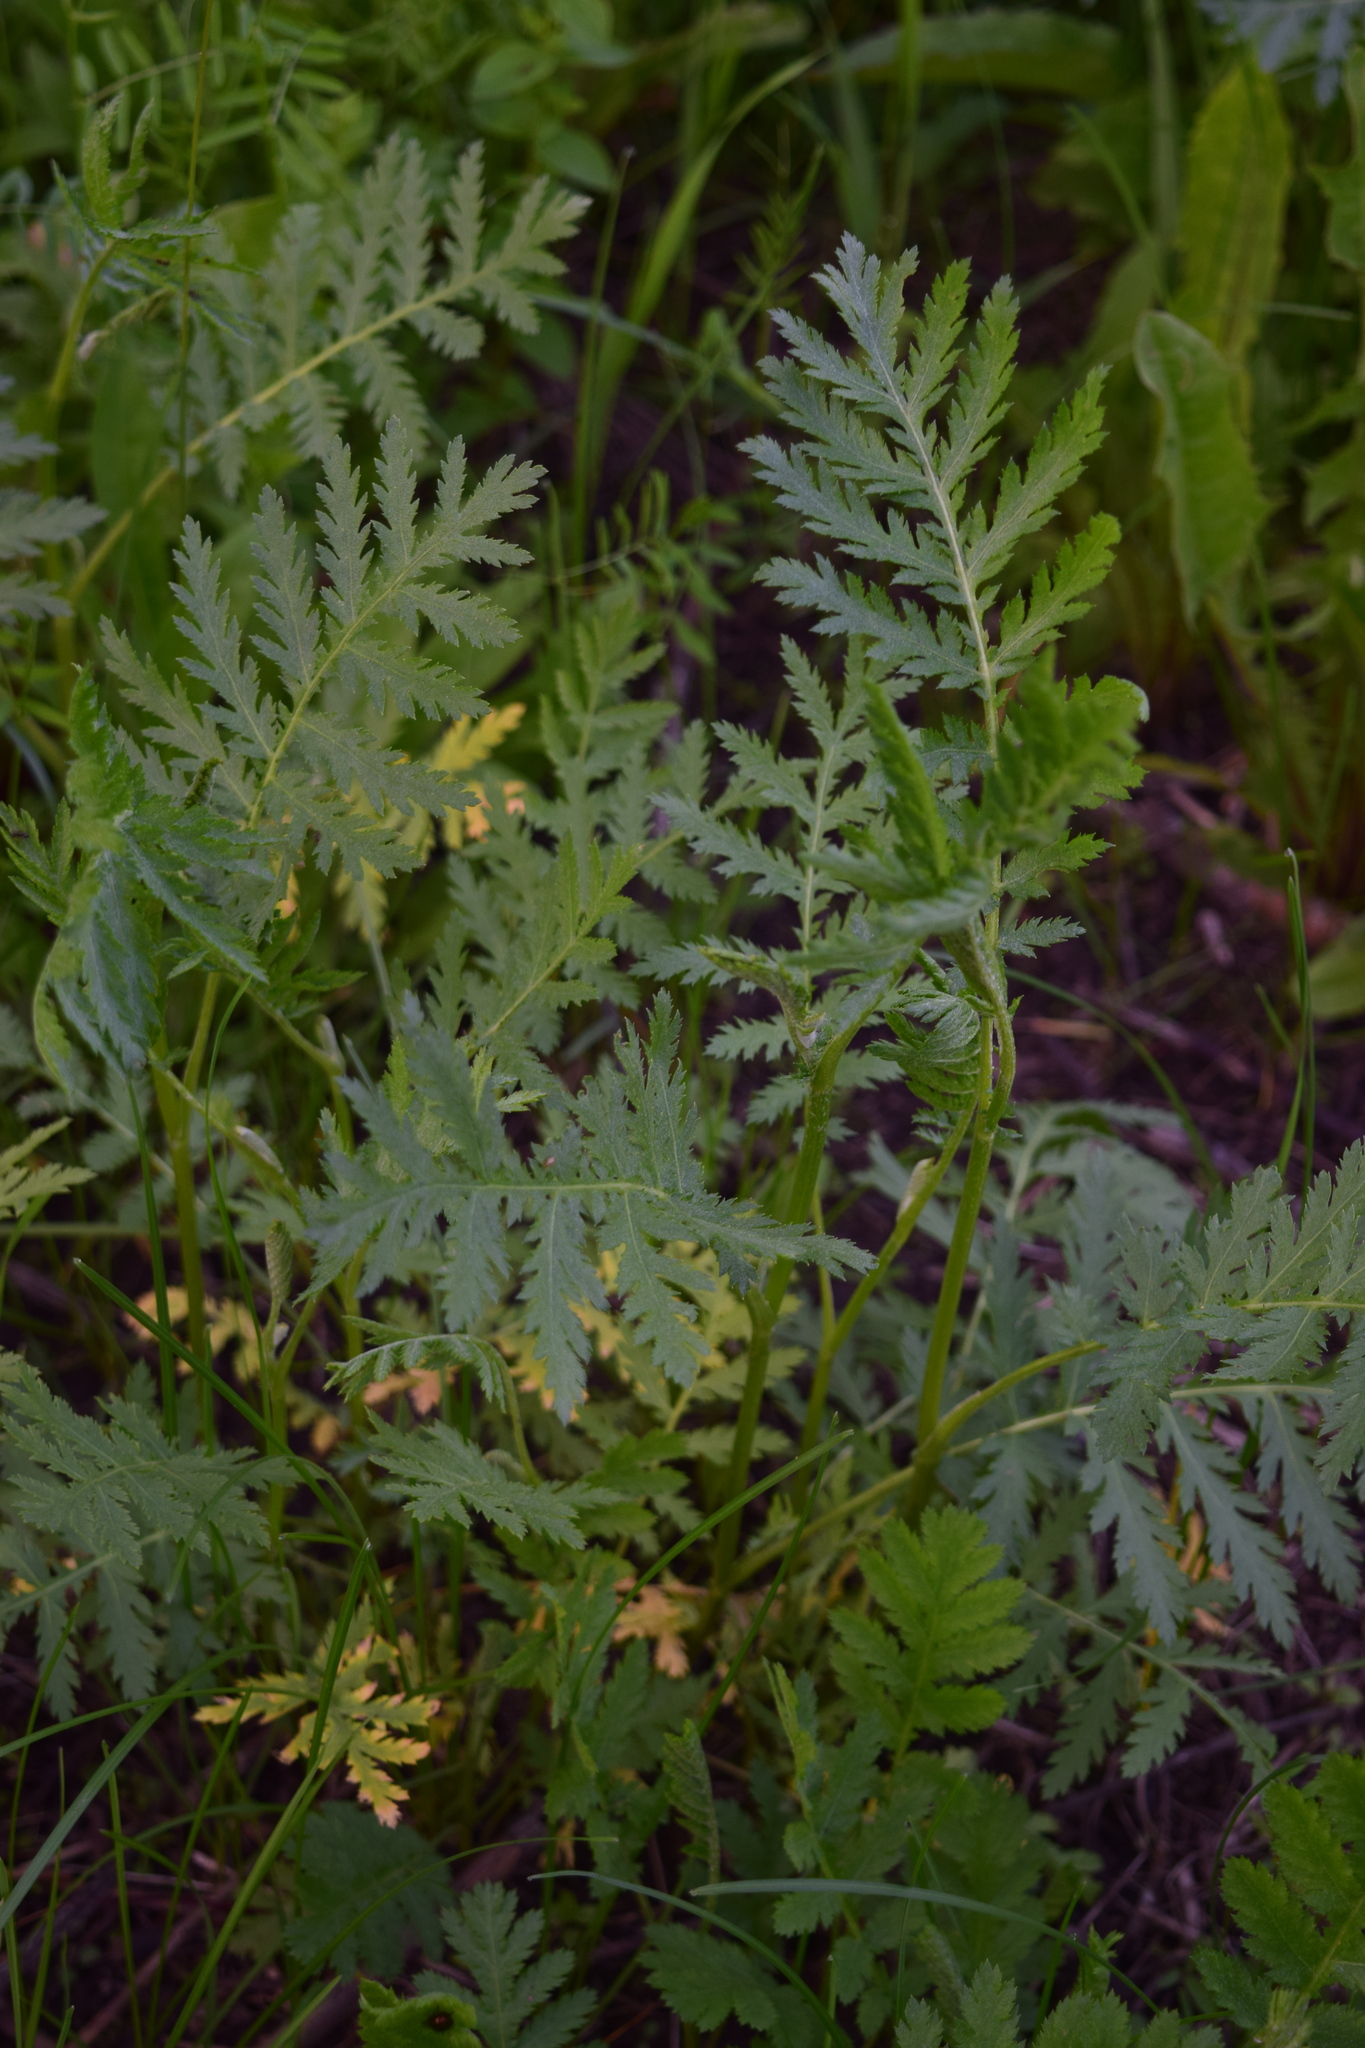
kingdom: Plantae
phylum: Tracheophyta
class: Magnoliopsida
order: Asterales
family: Asteraceae
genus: Tanacetum
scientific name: Tanacetum vulgare
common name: Common tansy
